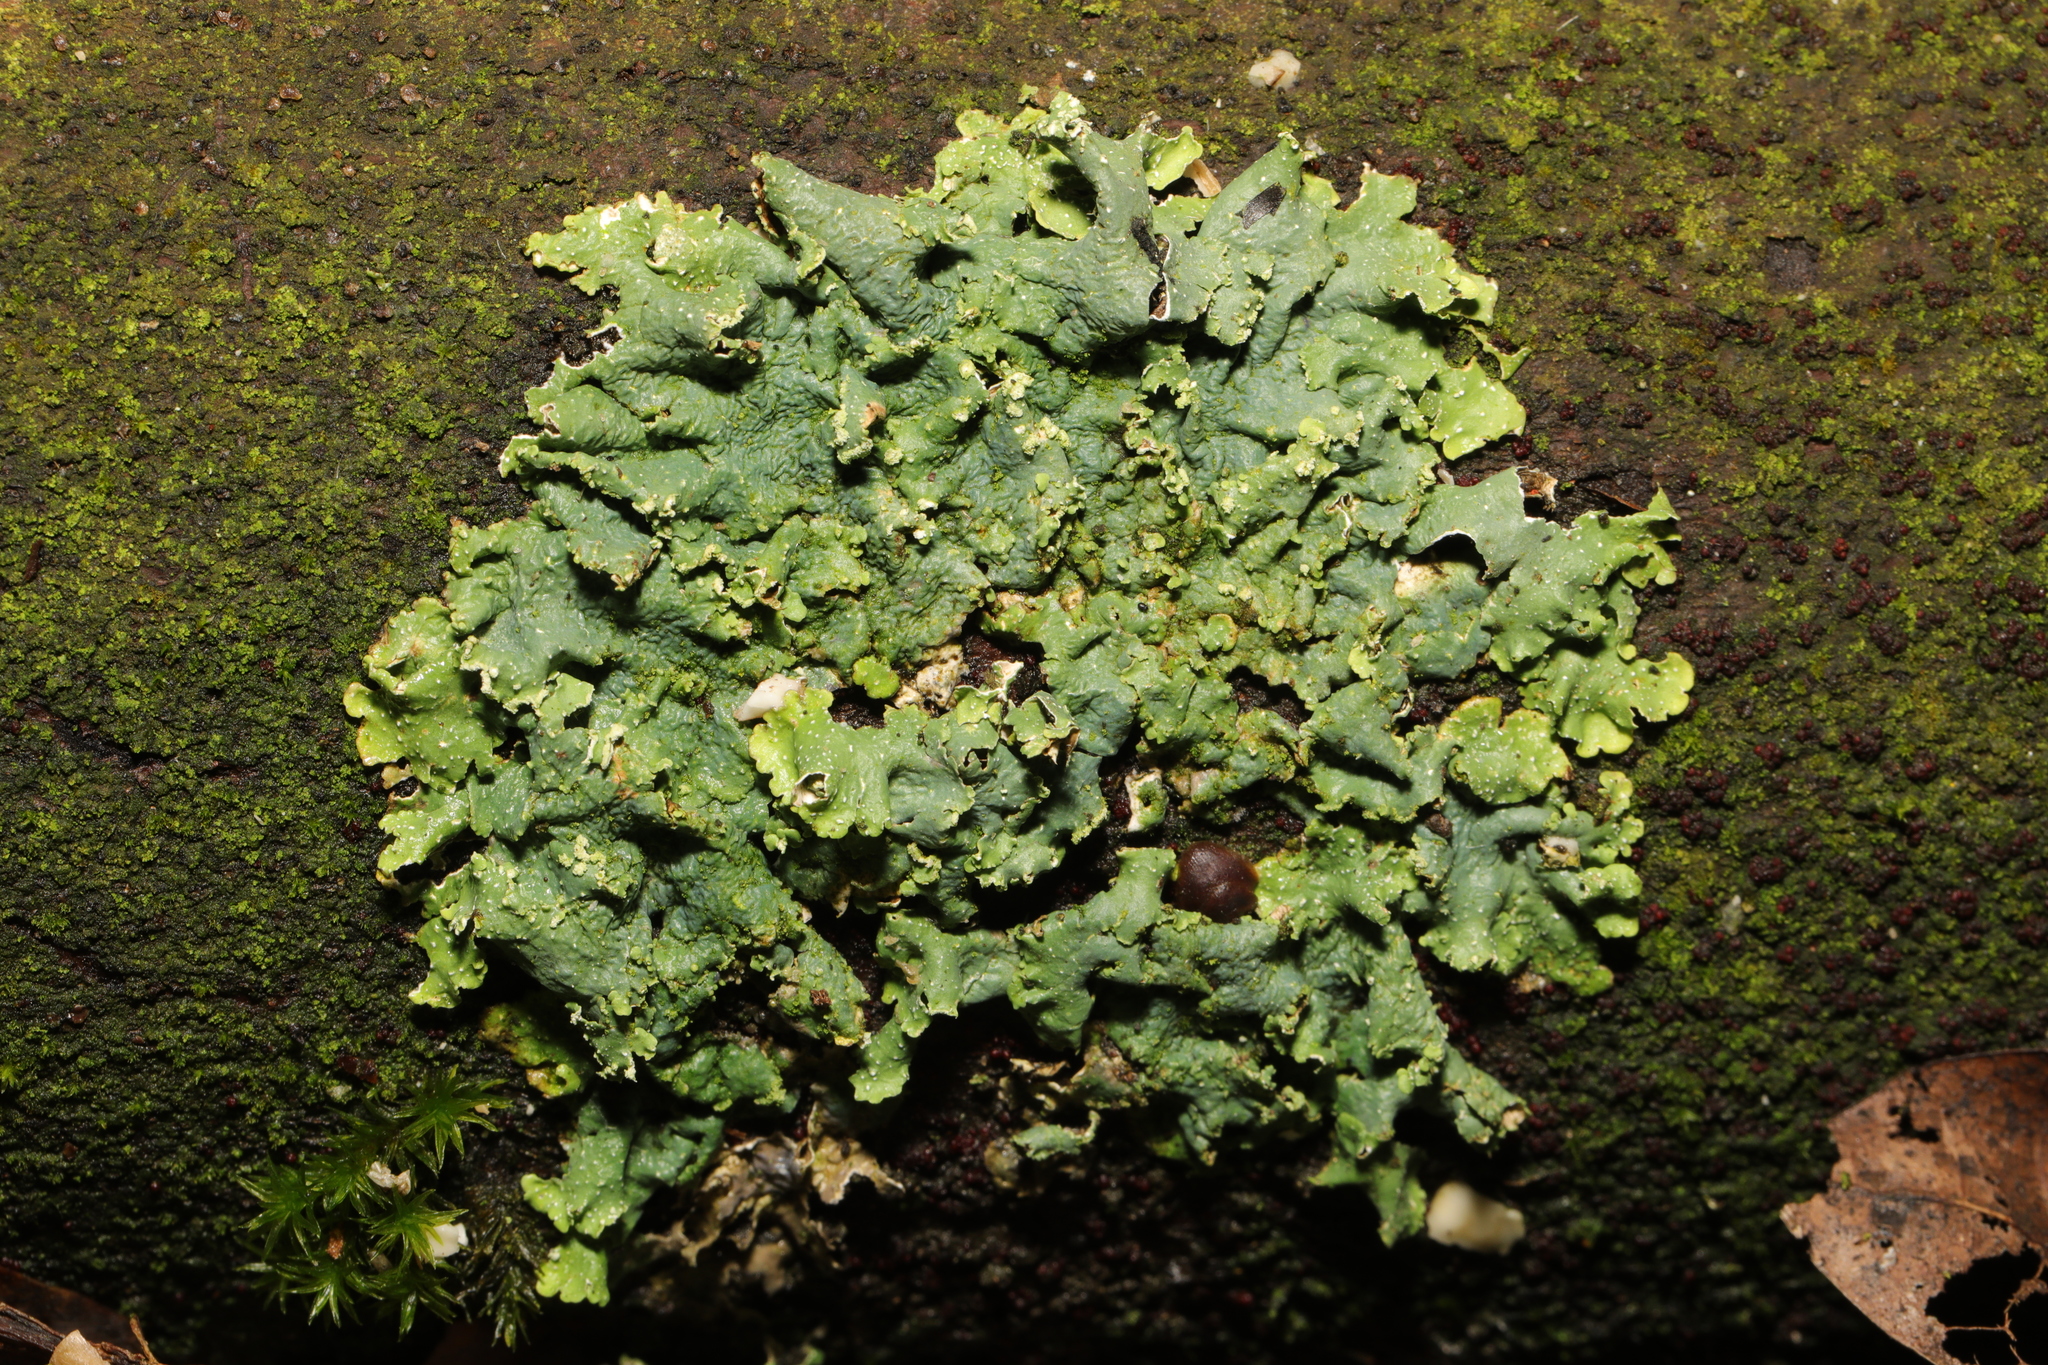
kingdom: Fungi
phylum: Ascomycota
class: Lecanoromycetes
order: Lecanorales
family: Parmeliaceae
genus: Punctelia
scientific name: Punctelia
